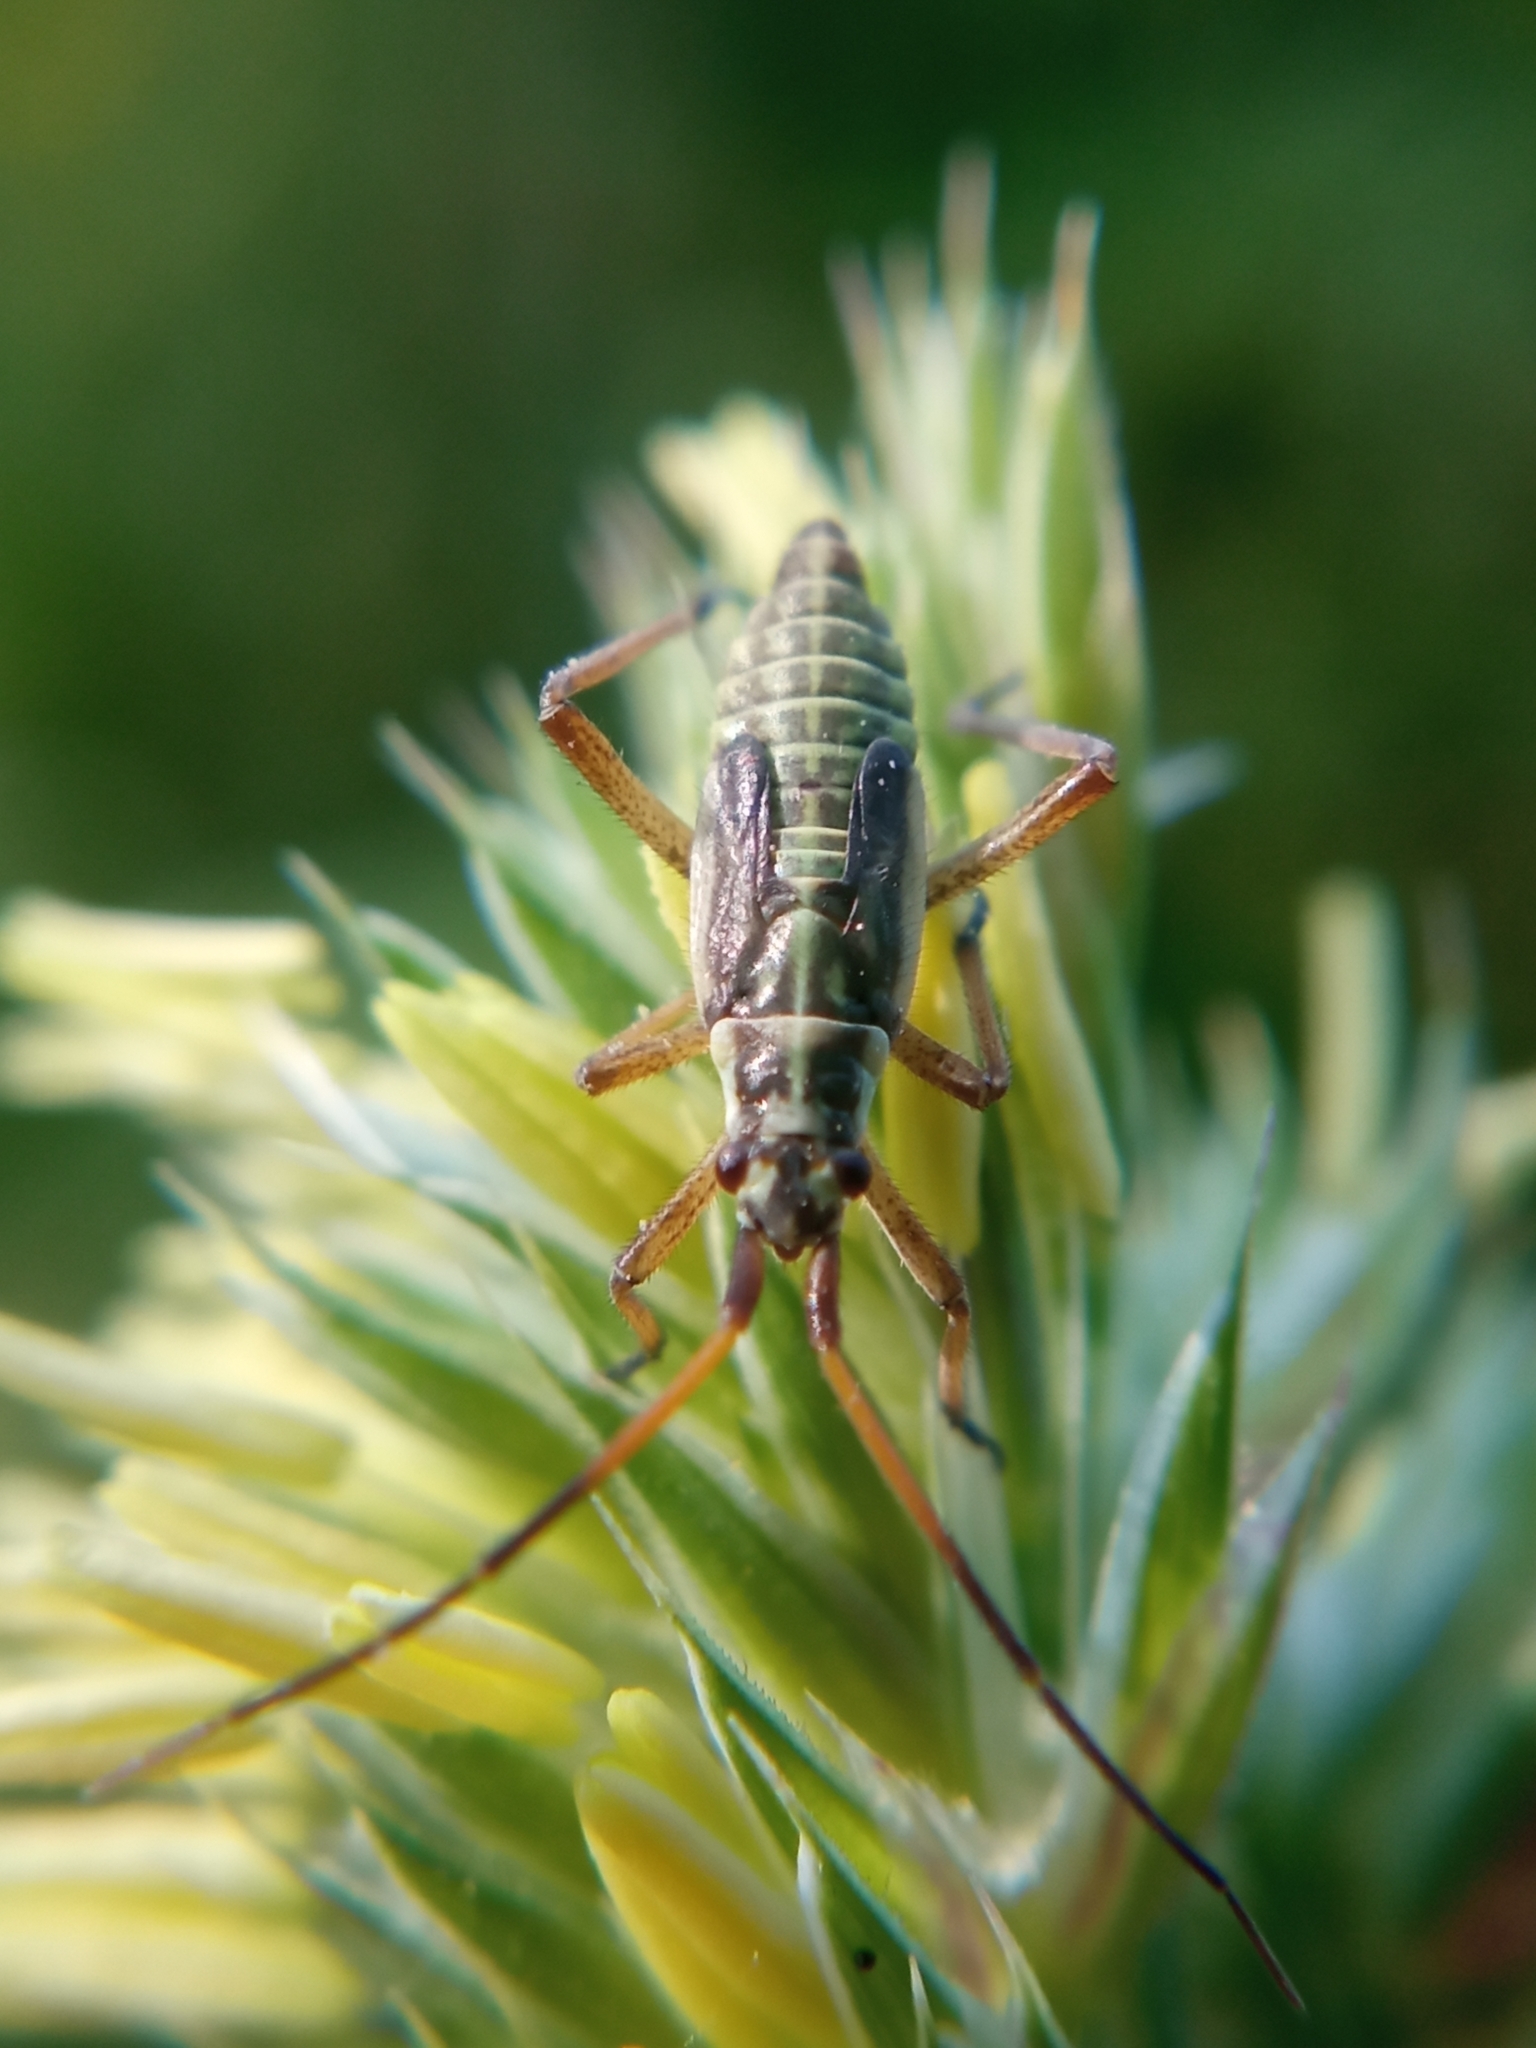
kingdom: Animalia
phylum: Arthropoda
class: Insecta
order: Hemiptera
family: Miridae
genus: Leptopterna
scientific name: Leptopterna dolabrata
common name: Meadow plant bug
